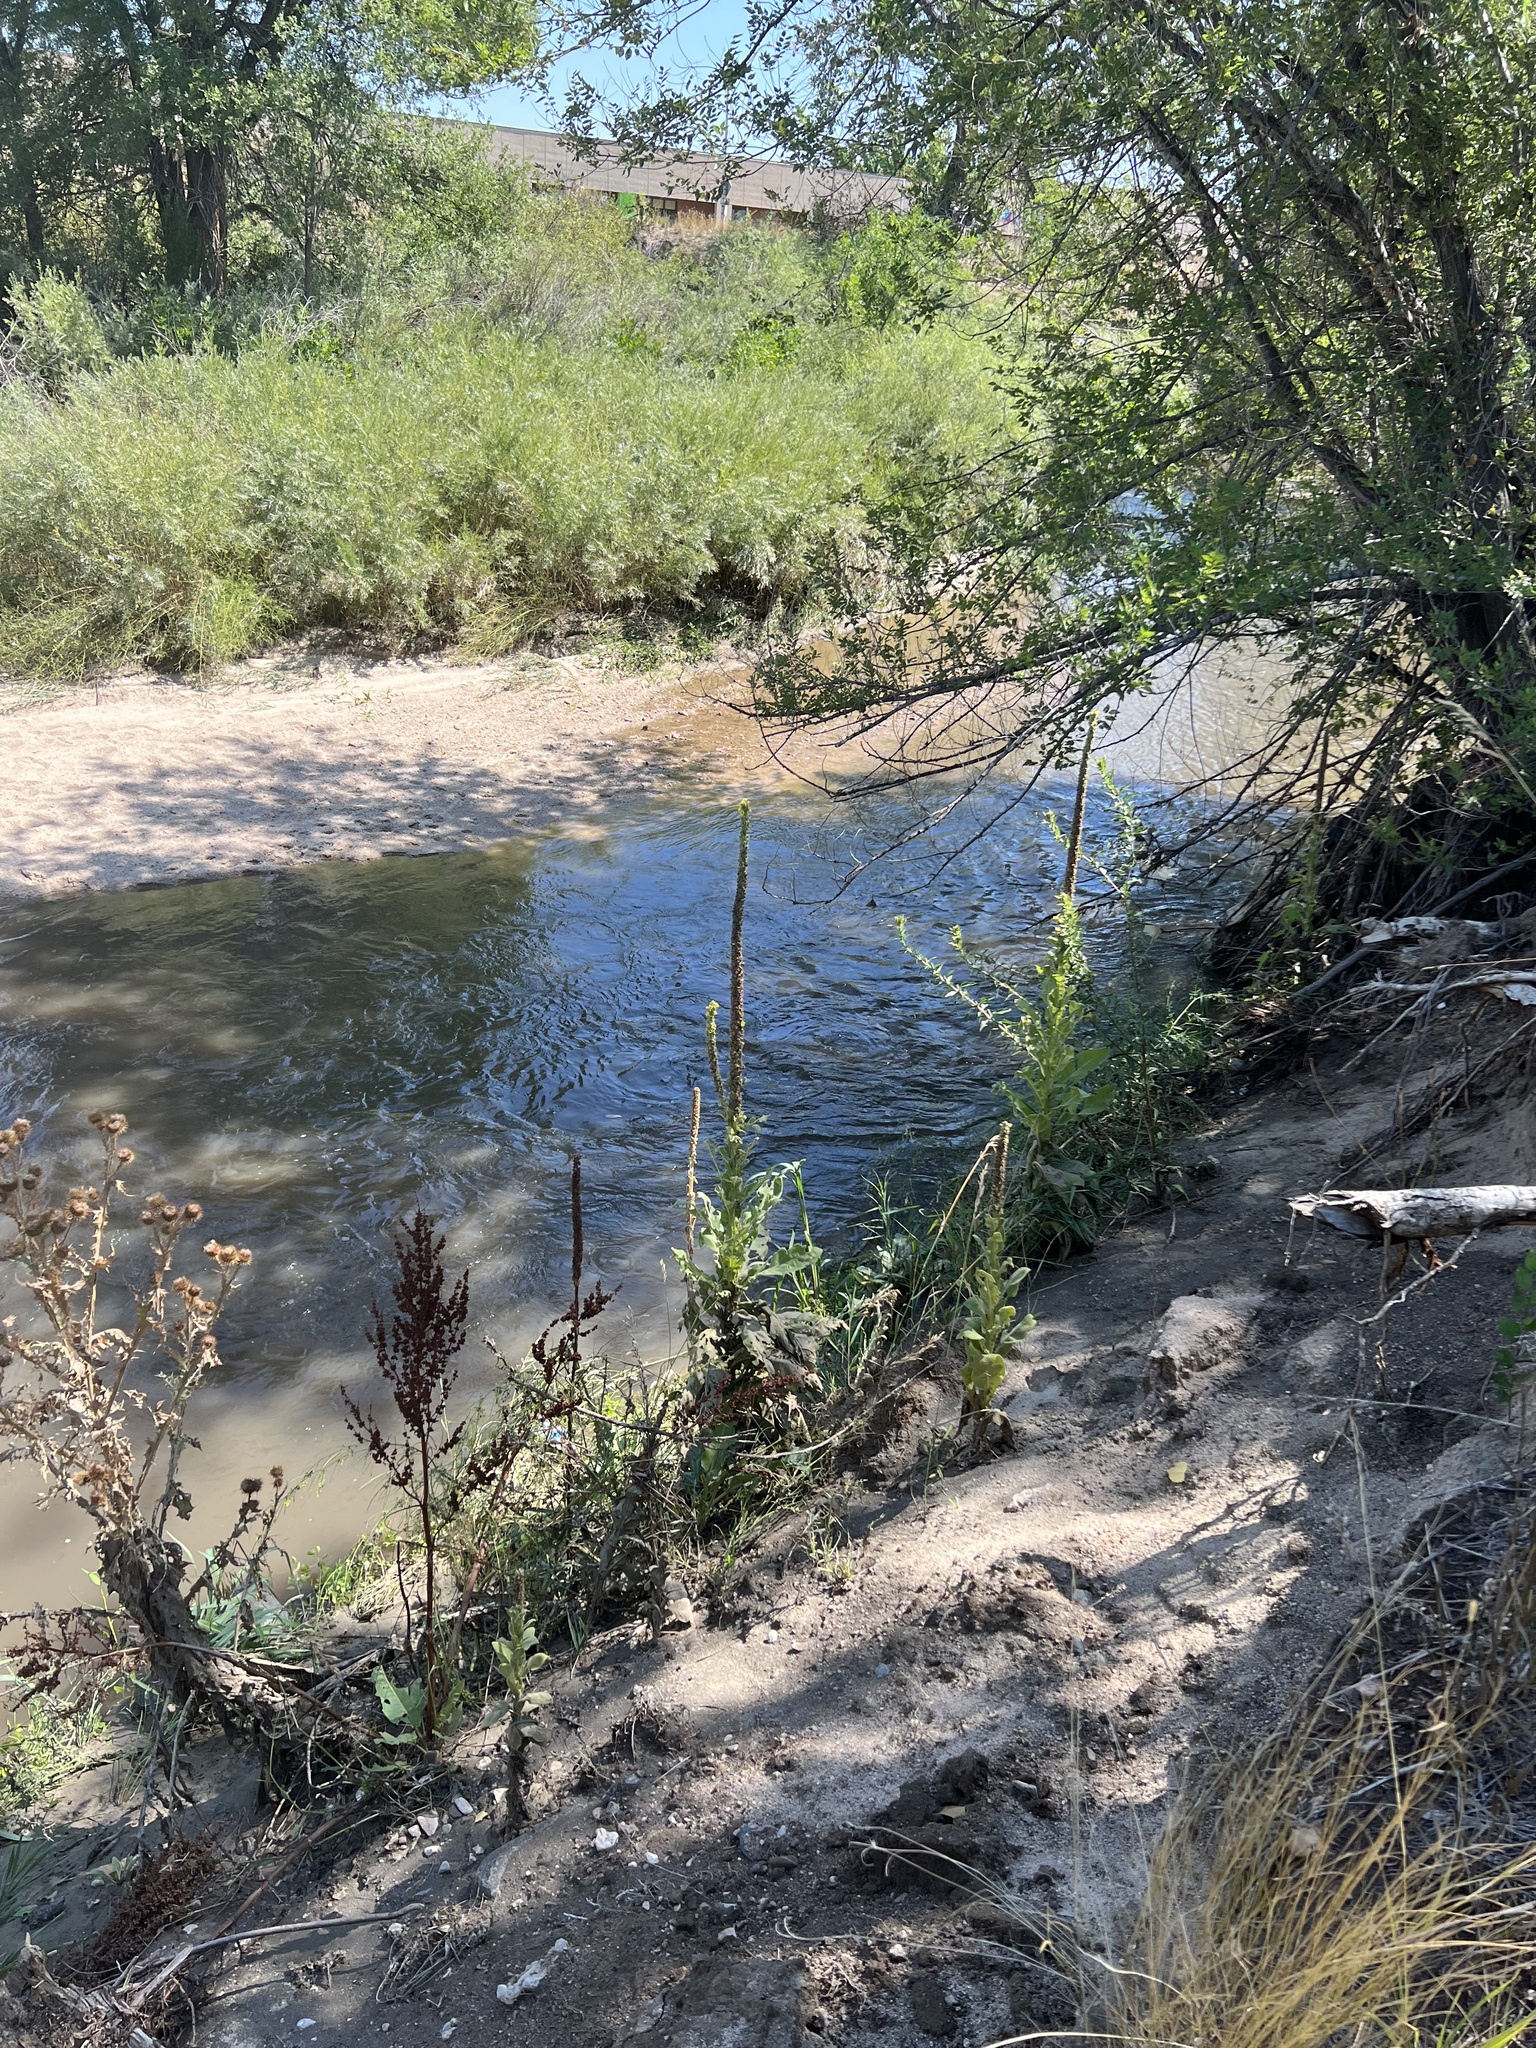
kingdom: Plantae
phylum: Tracheophyta
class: Magnoliopsida
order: Lamiales
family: Scrophulariaceae
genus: Verbascum
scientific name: Verbascum thapsus
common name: Common mullein
